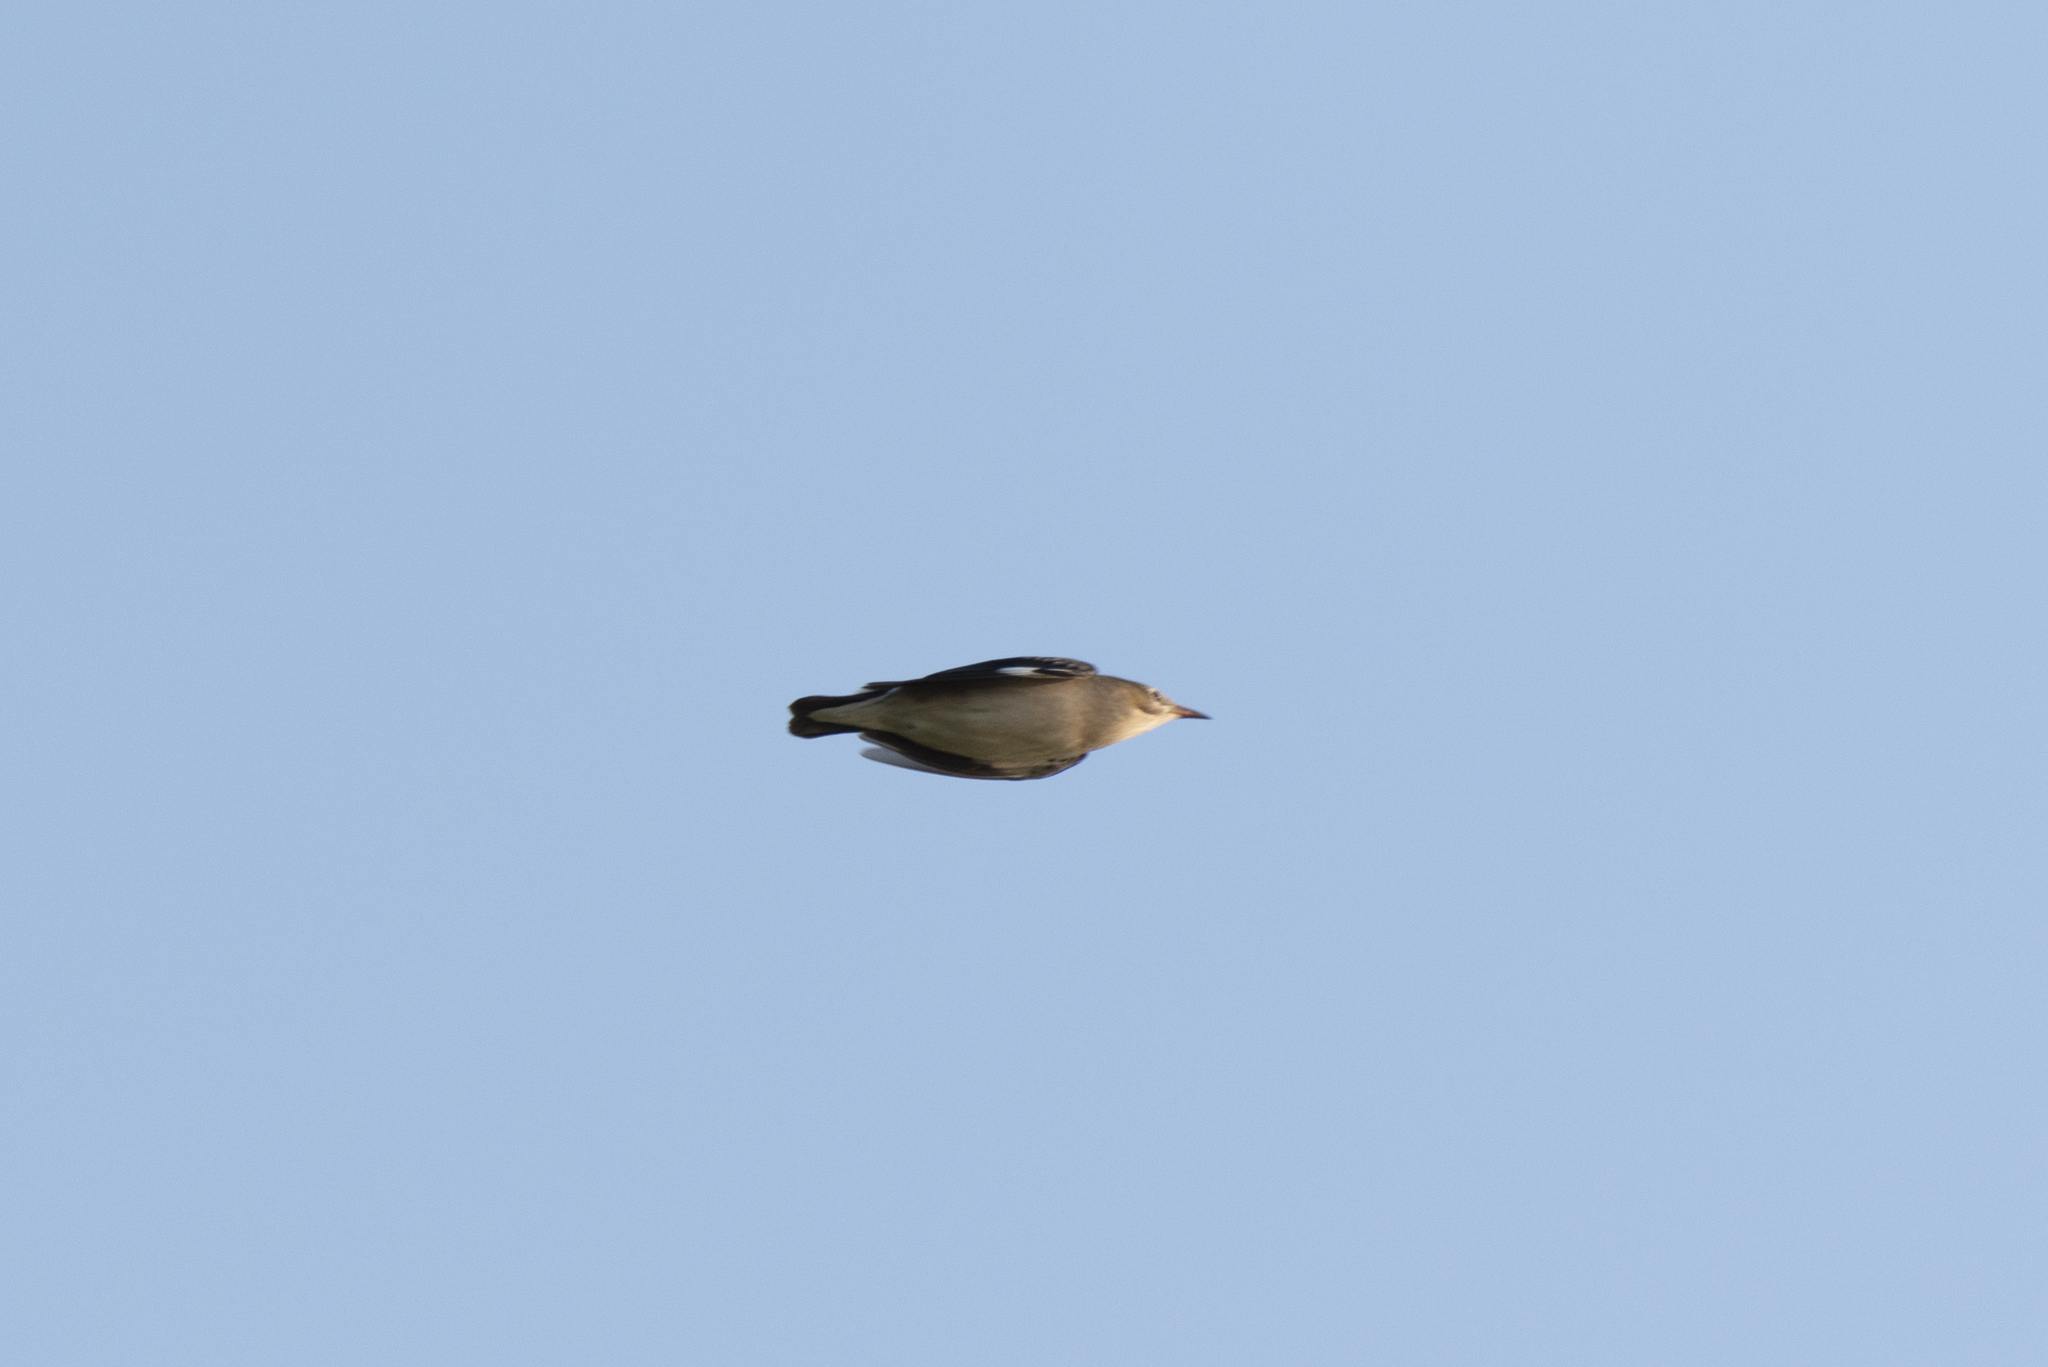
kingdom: Animalia
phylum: Chordata
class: Aves
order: Passeriformes
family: Sturnidae
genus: Spodiopsar
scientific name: Spodiopsar sericeus
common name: Red-billed starling
